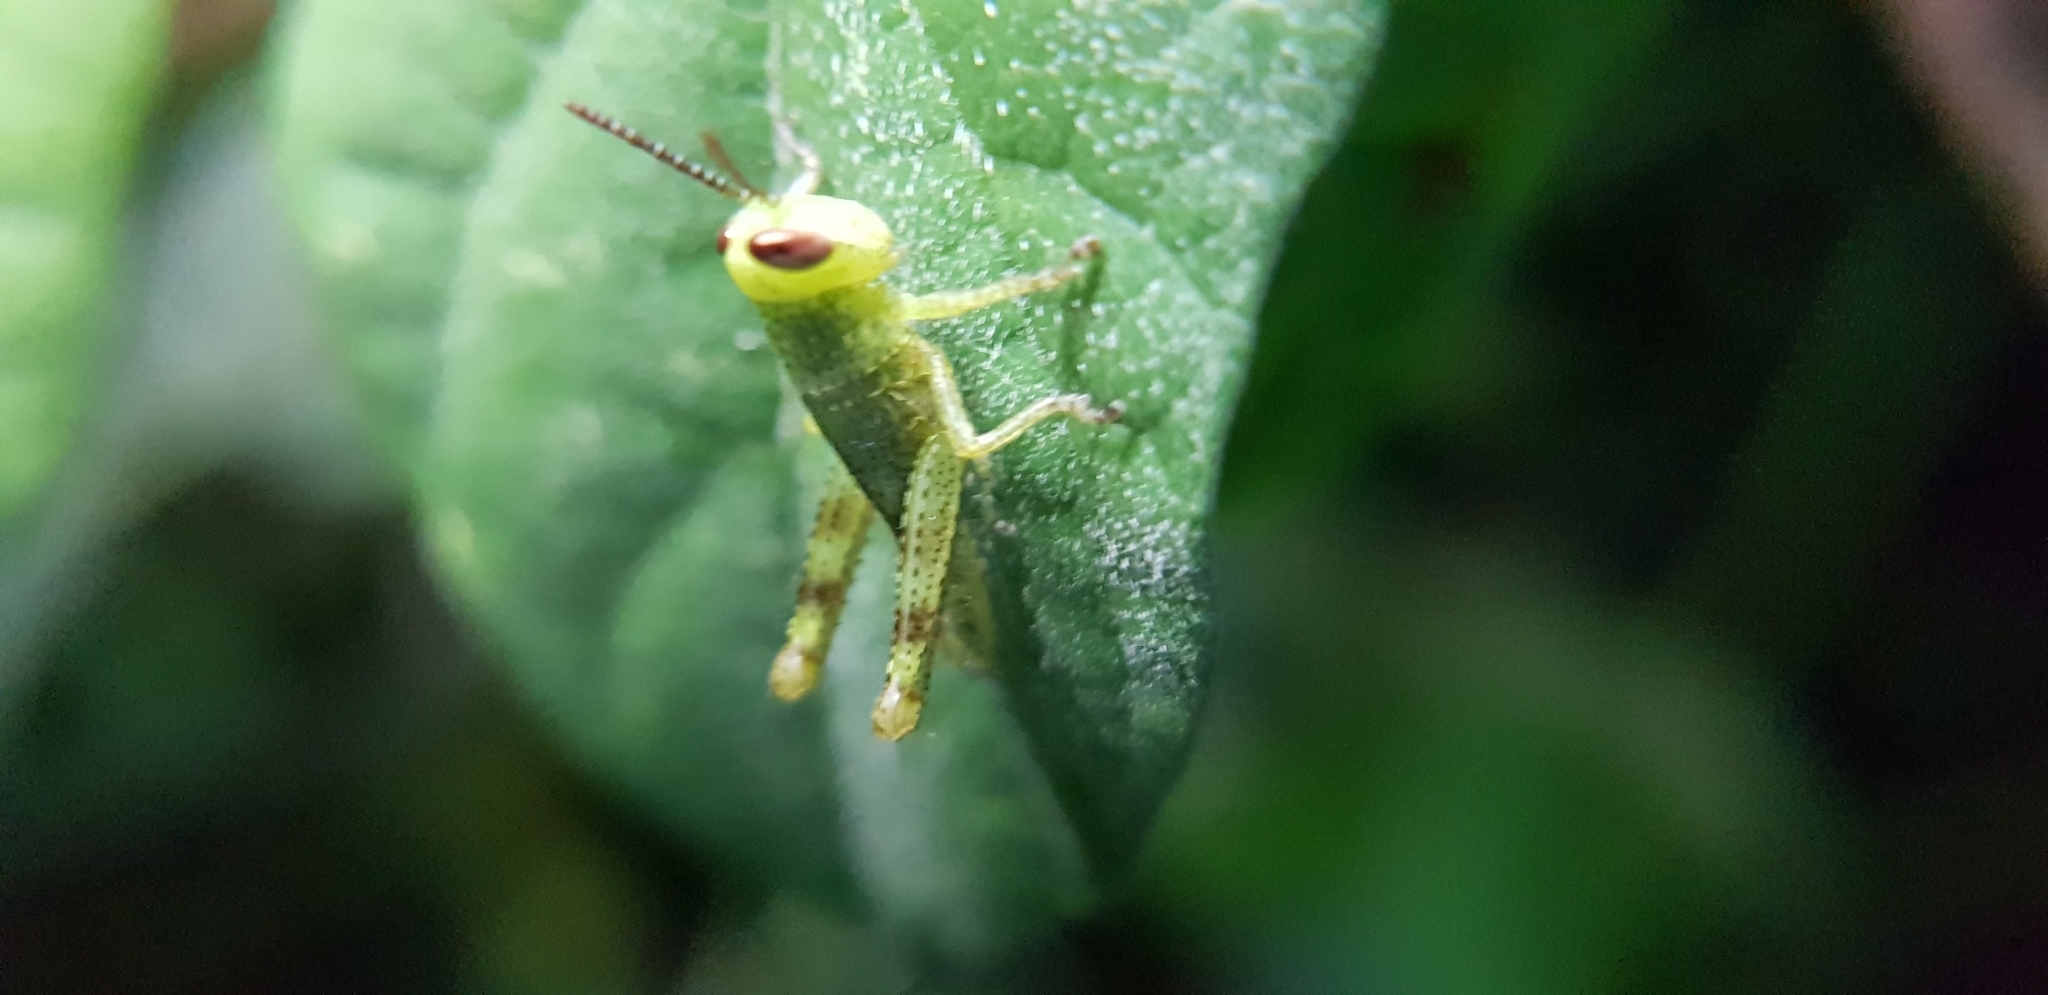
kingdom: Animalia
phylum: Arthropoda
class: Insecta
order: Orthoptera
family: Acrididae
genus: Valanga
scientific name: Valanga irregularis
